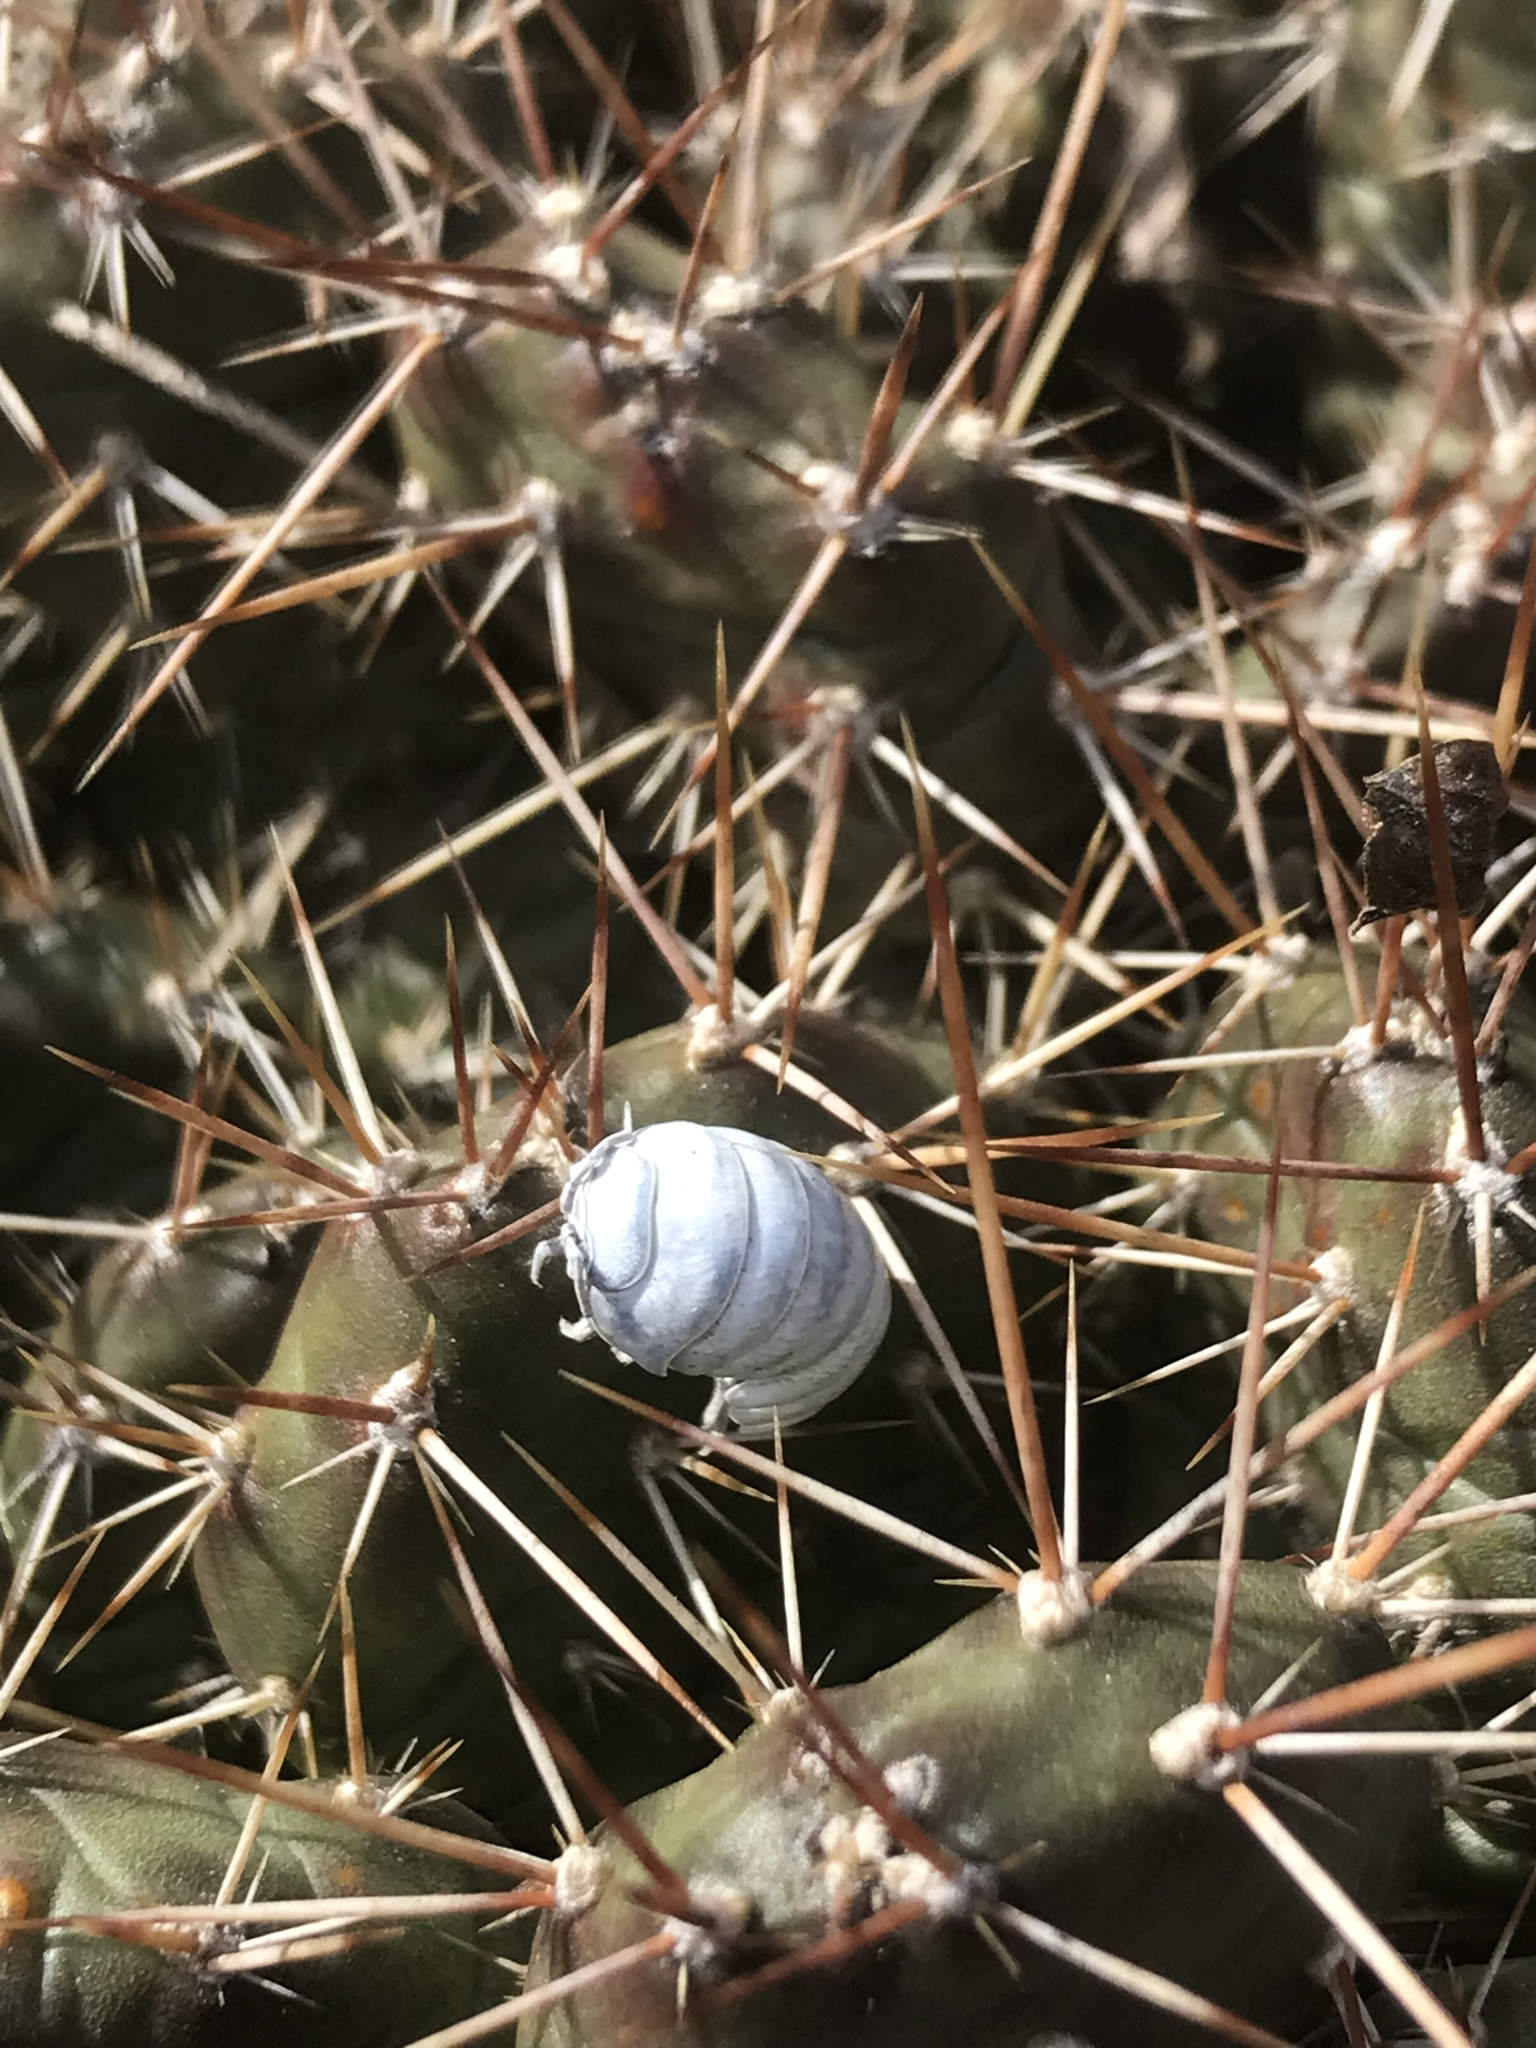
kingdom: Animalia
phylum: Arthropoda
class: Malacostraca
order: Isopoda
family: Armadillidiidae
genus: Armadillidium
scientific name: Armadillidium vulgare
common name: Common pill woodlouse
